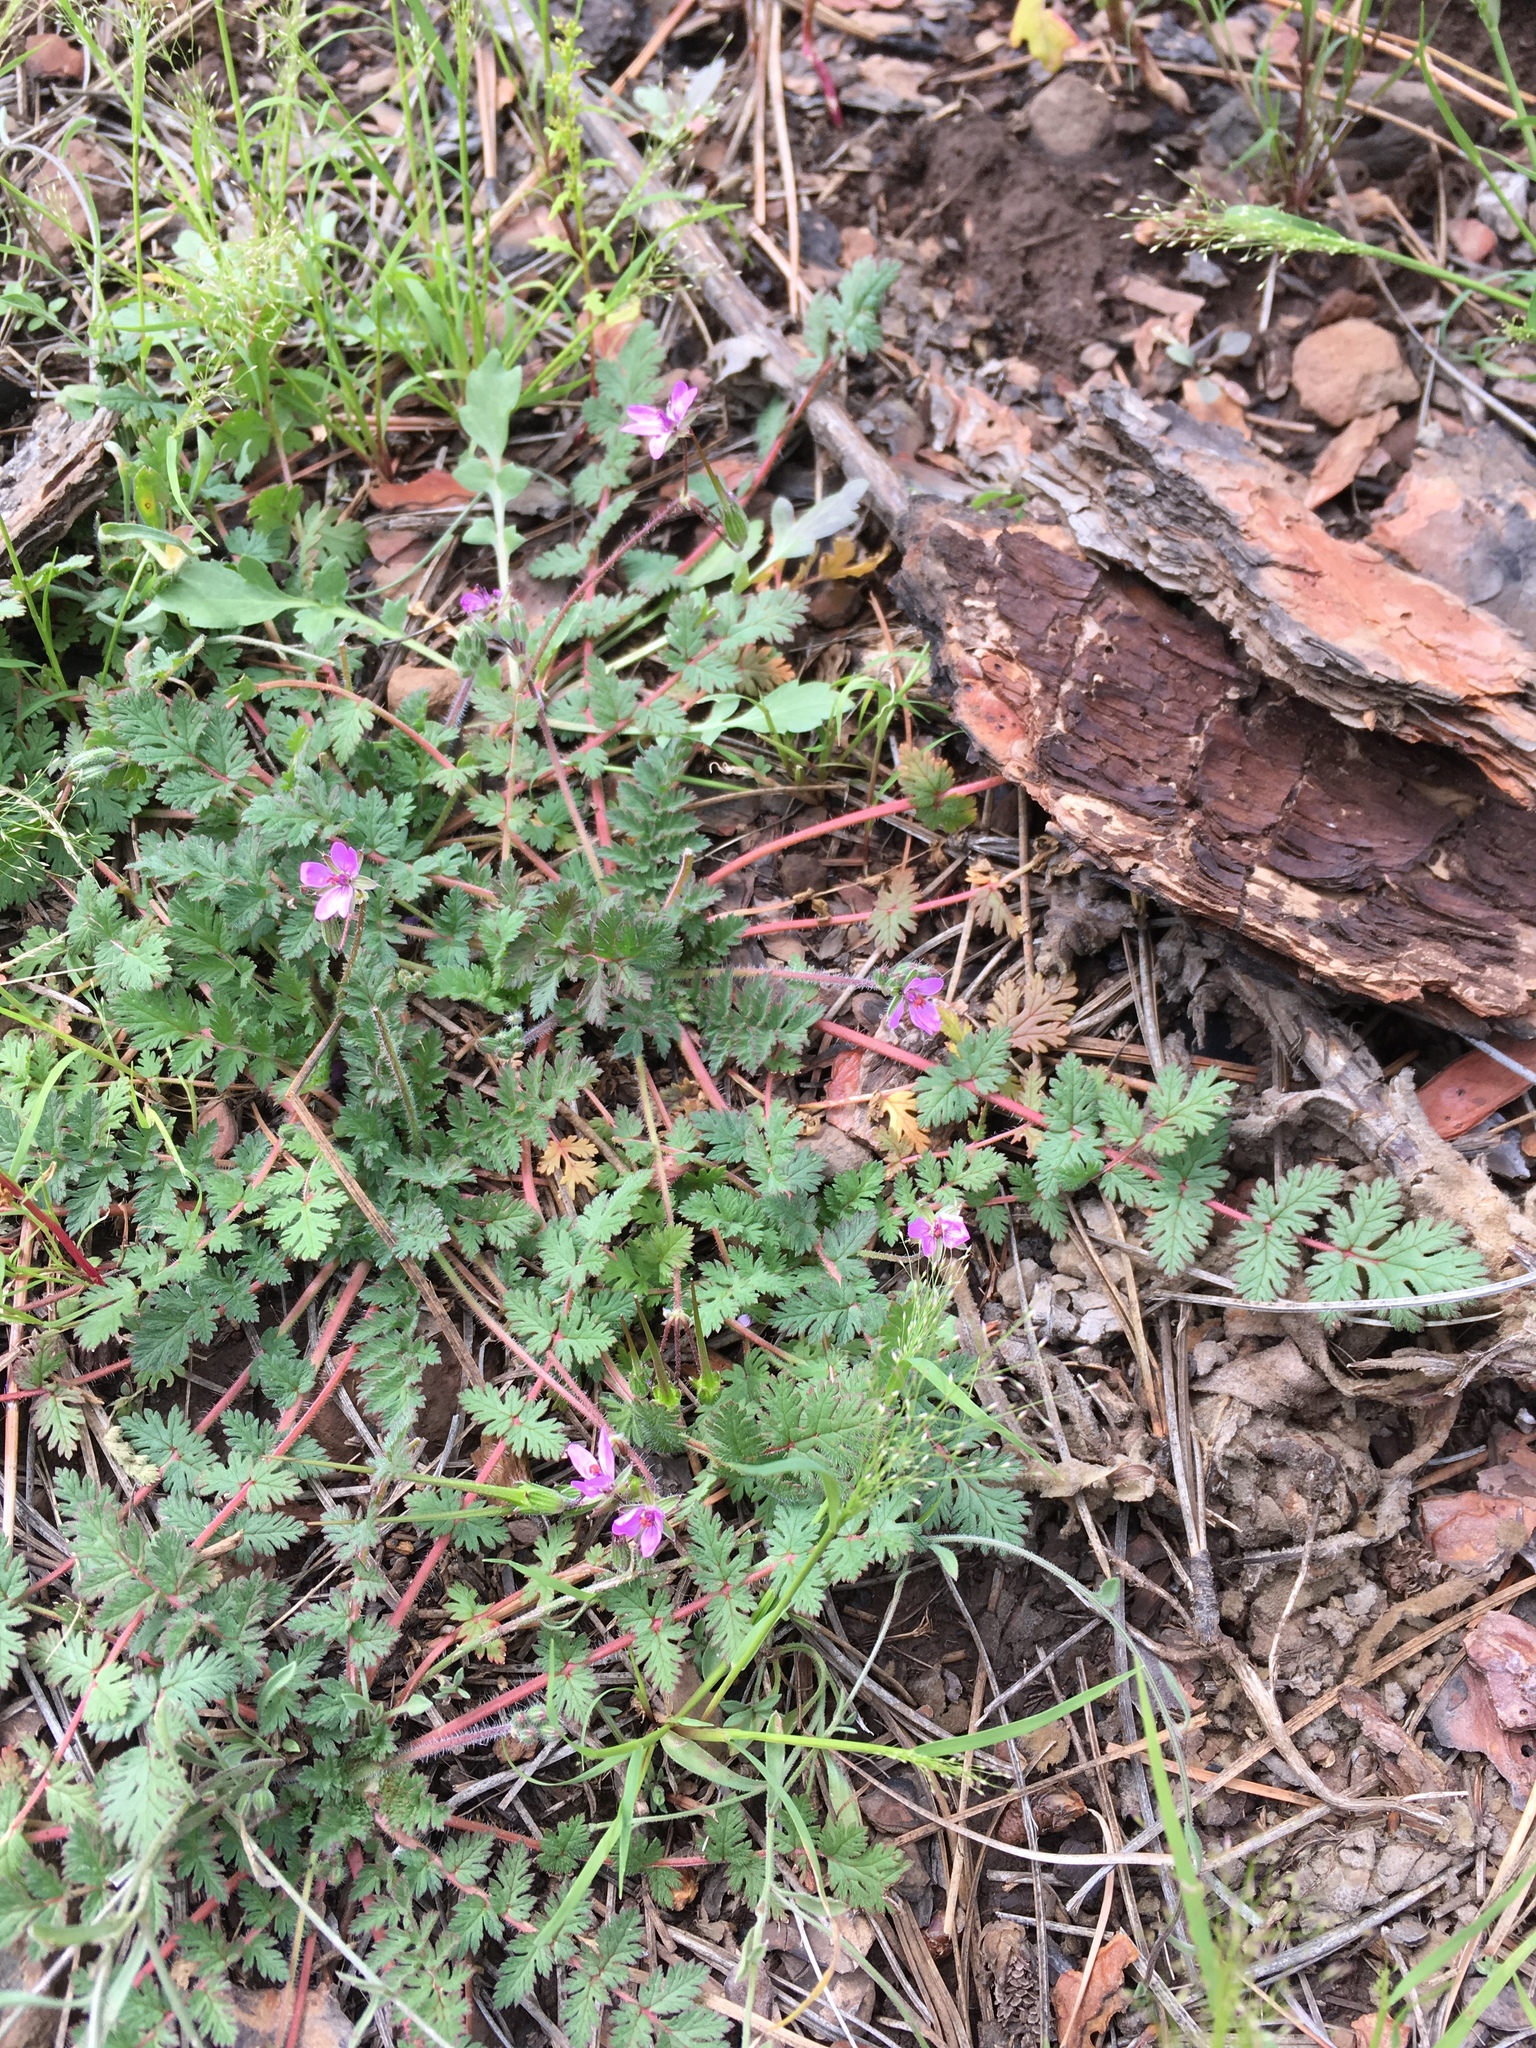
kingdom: Plantae
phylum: Tracheophyta
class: Magnoliopsida
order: Geraniales
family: Geraniaceae
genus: Erodium
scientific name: Erodium cicutarium
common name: Common stork's-bill
